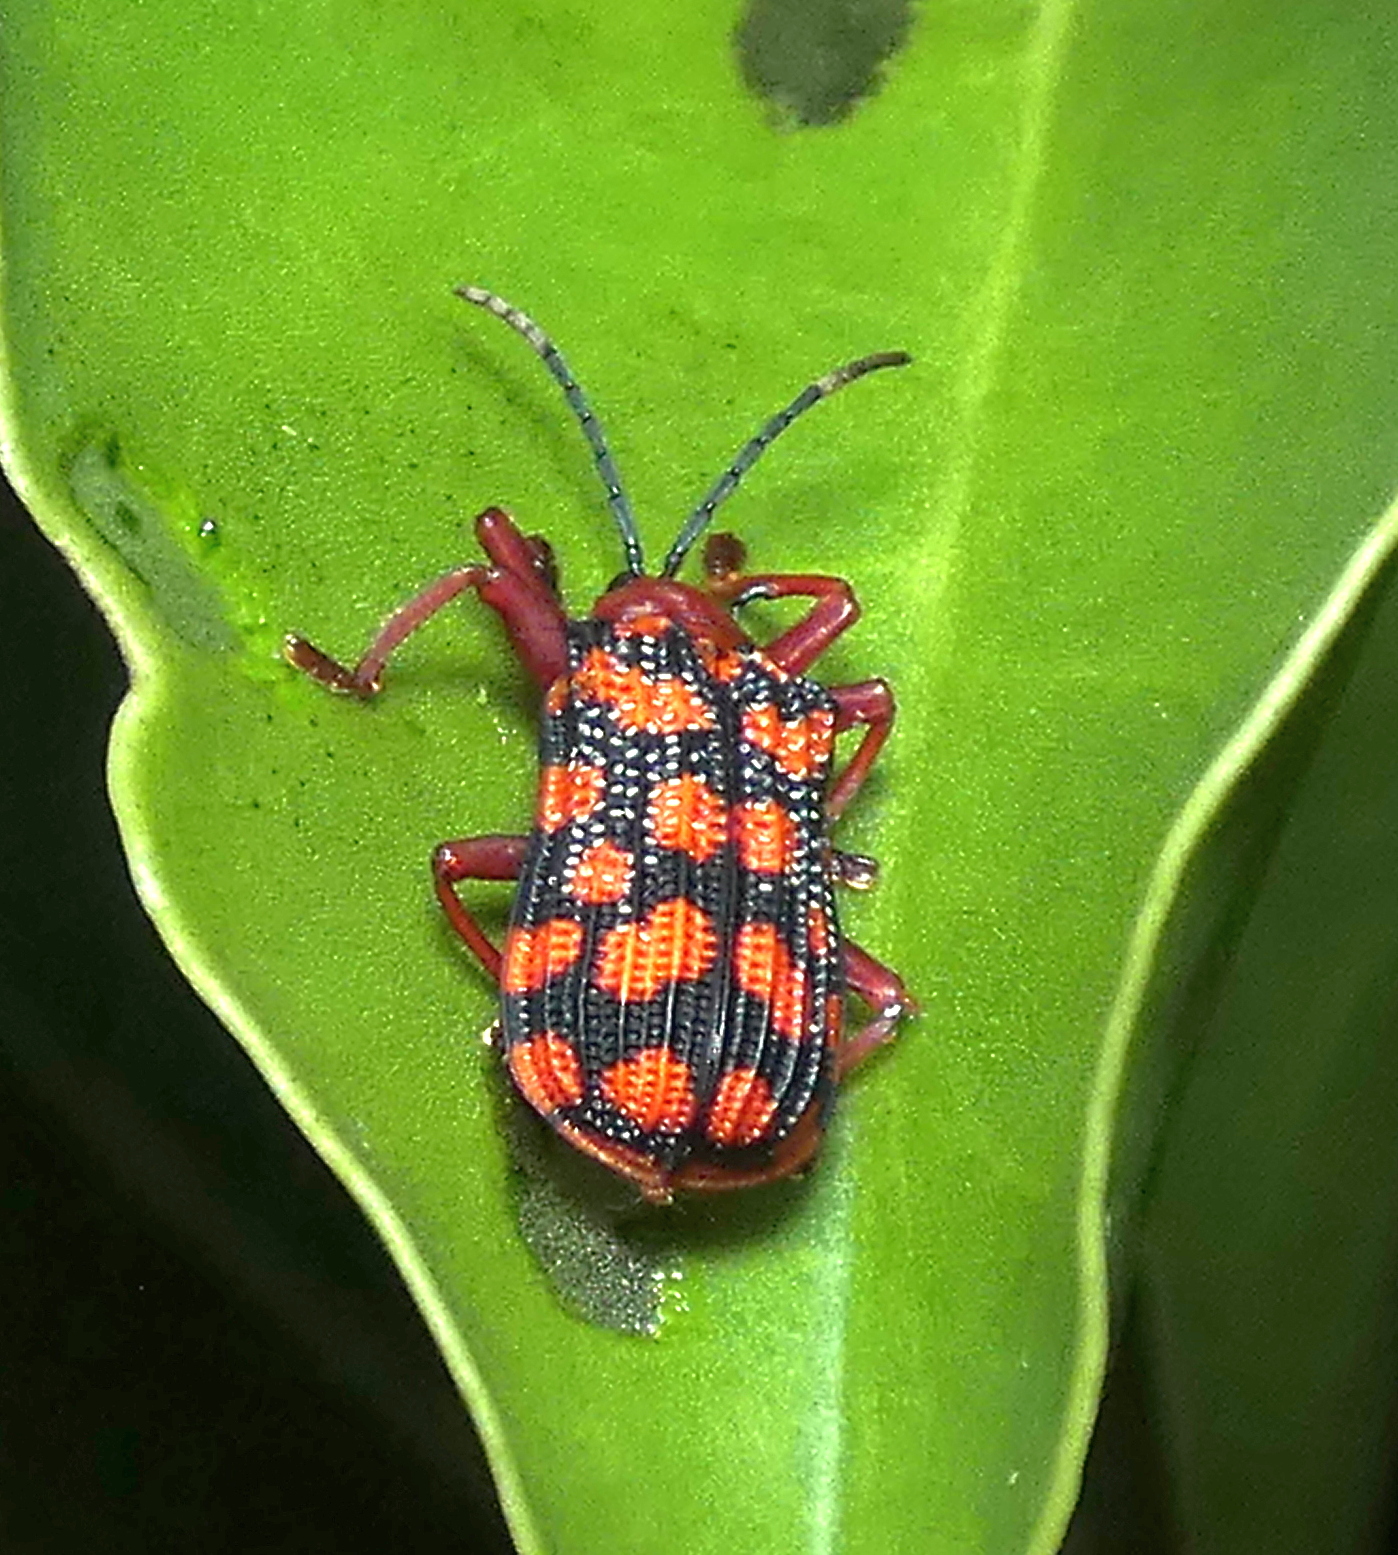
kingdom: Animalia
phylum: Arthropoda
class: Insecta
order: Coleoptera
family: Chrysomelidae
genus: Sceloenopla
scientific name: Sceloenopla maculata
